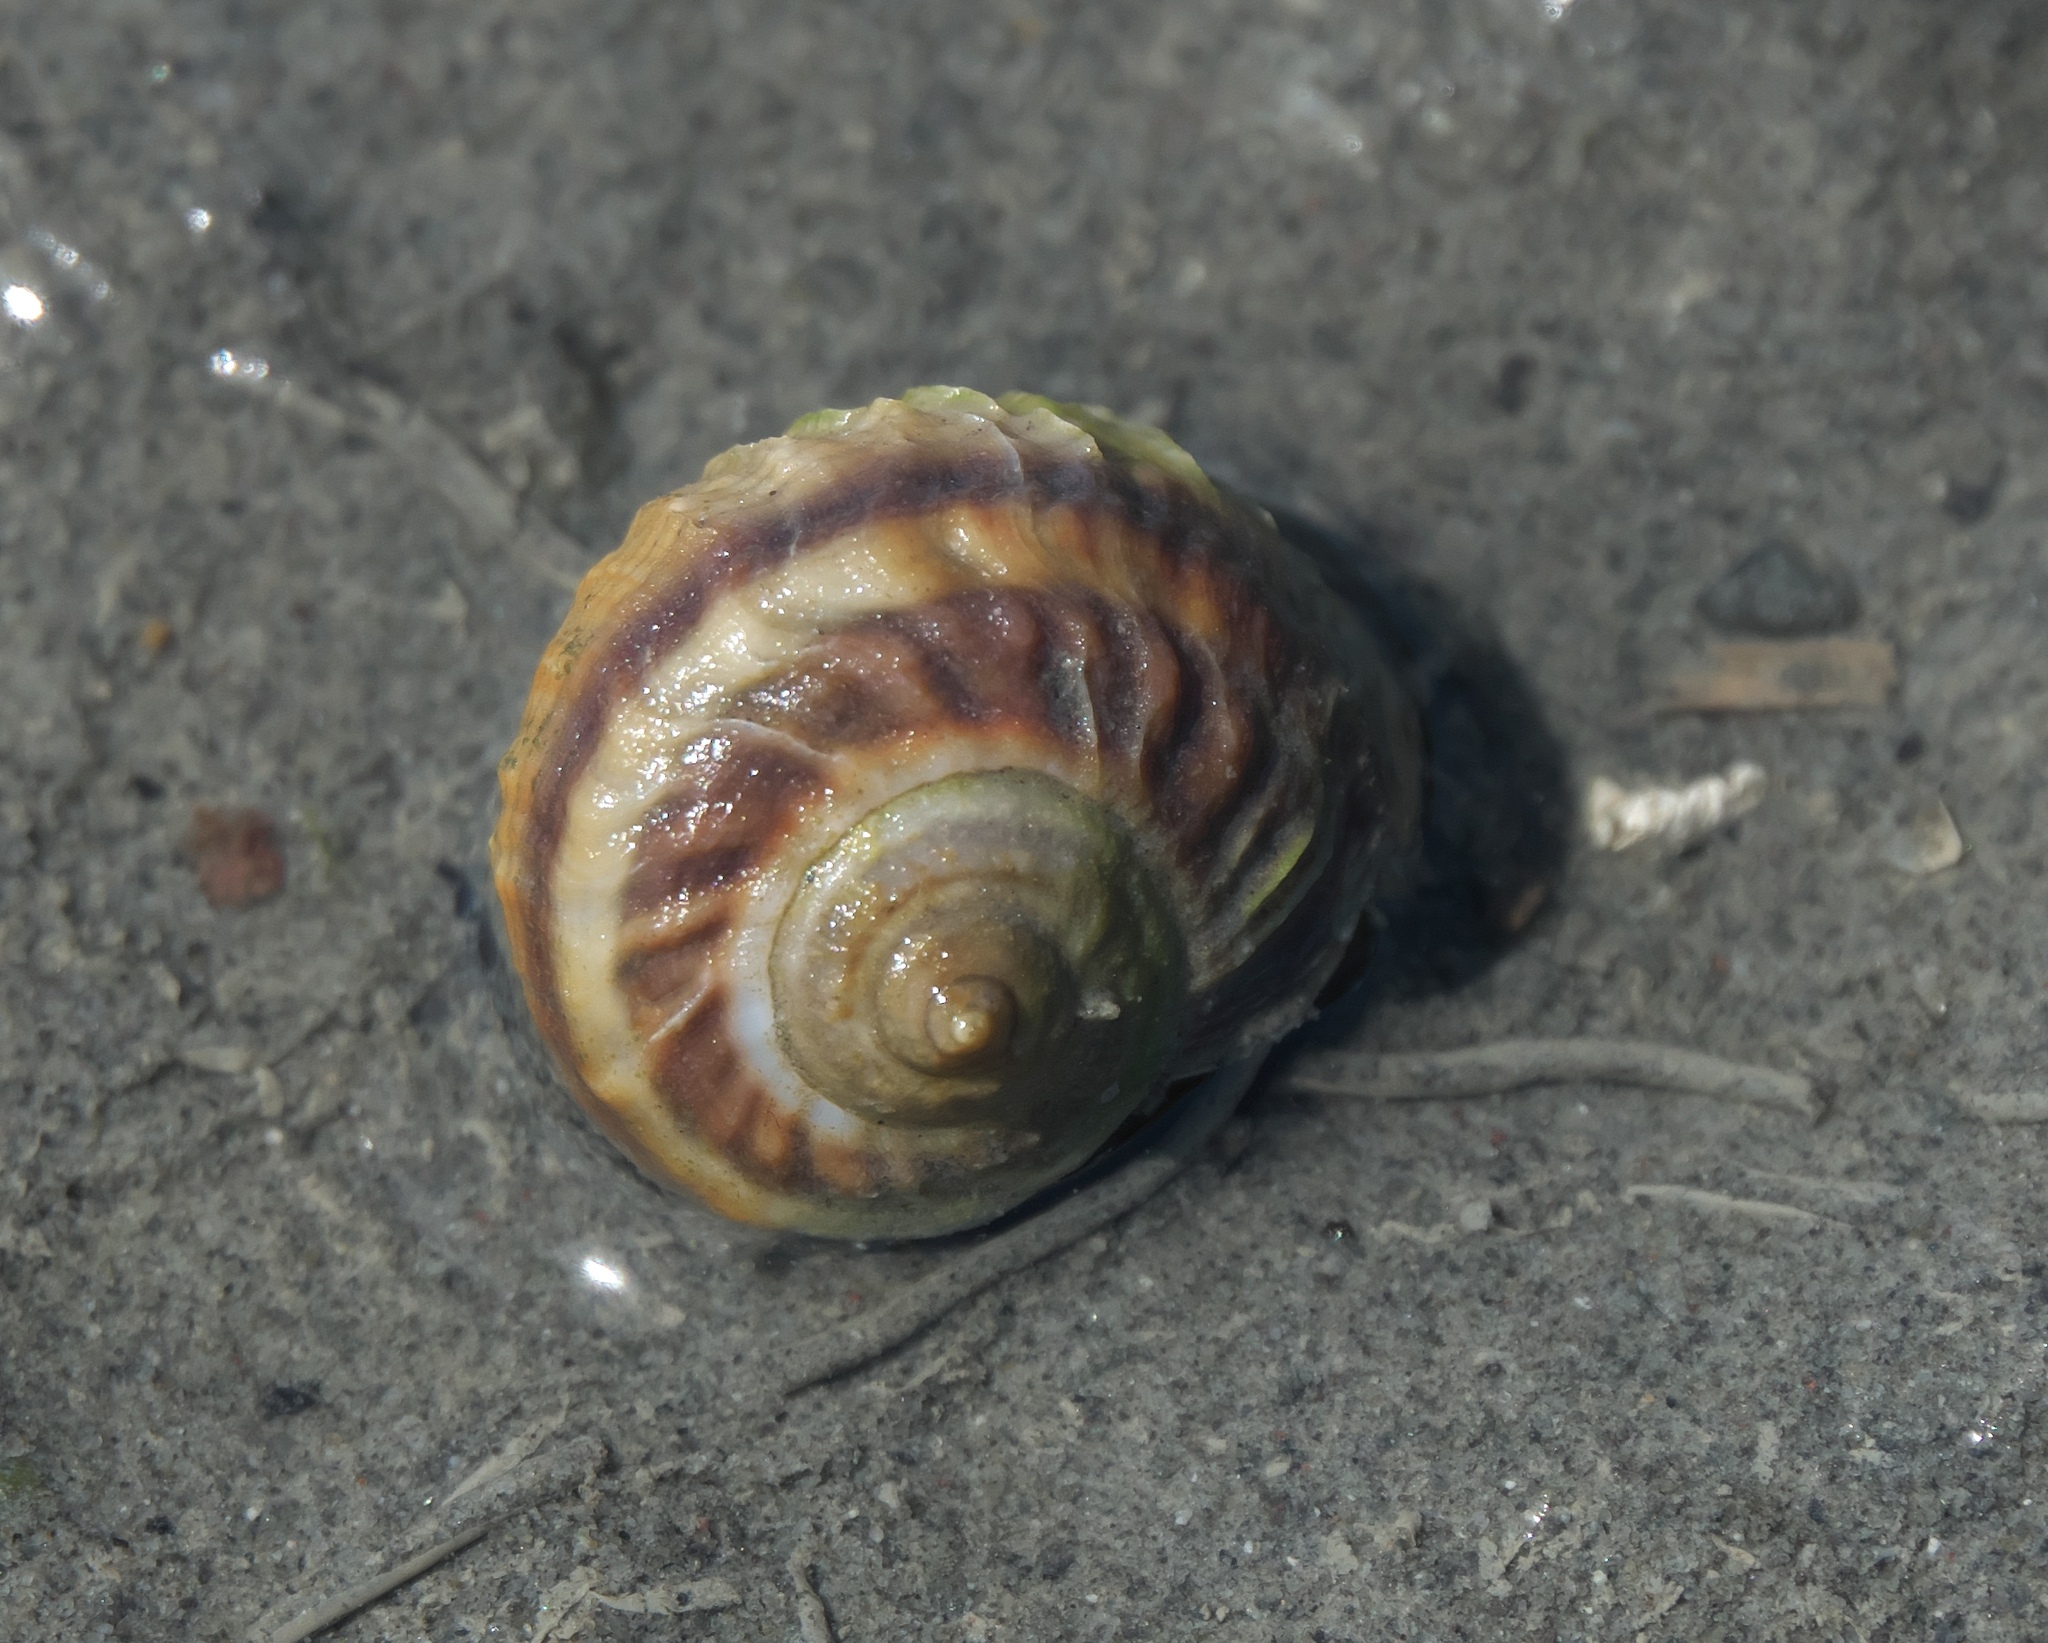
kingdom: Animalia
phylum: Mollusca
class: Gastropoda
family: Amphibolidae
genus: Amphibola
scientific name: Amphibola crenata
